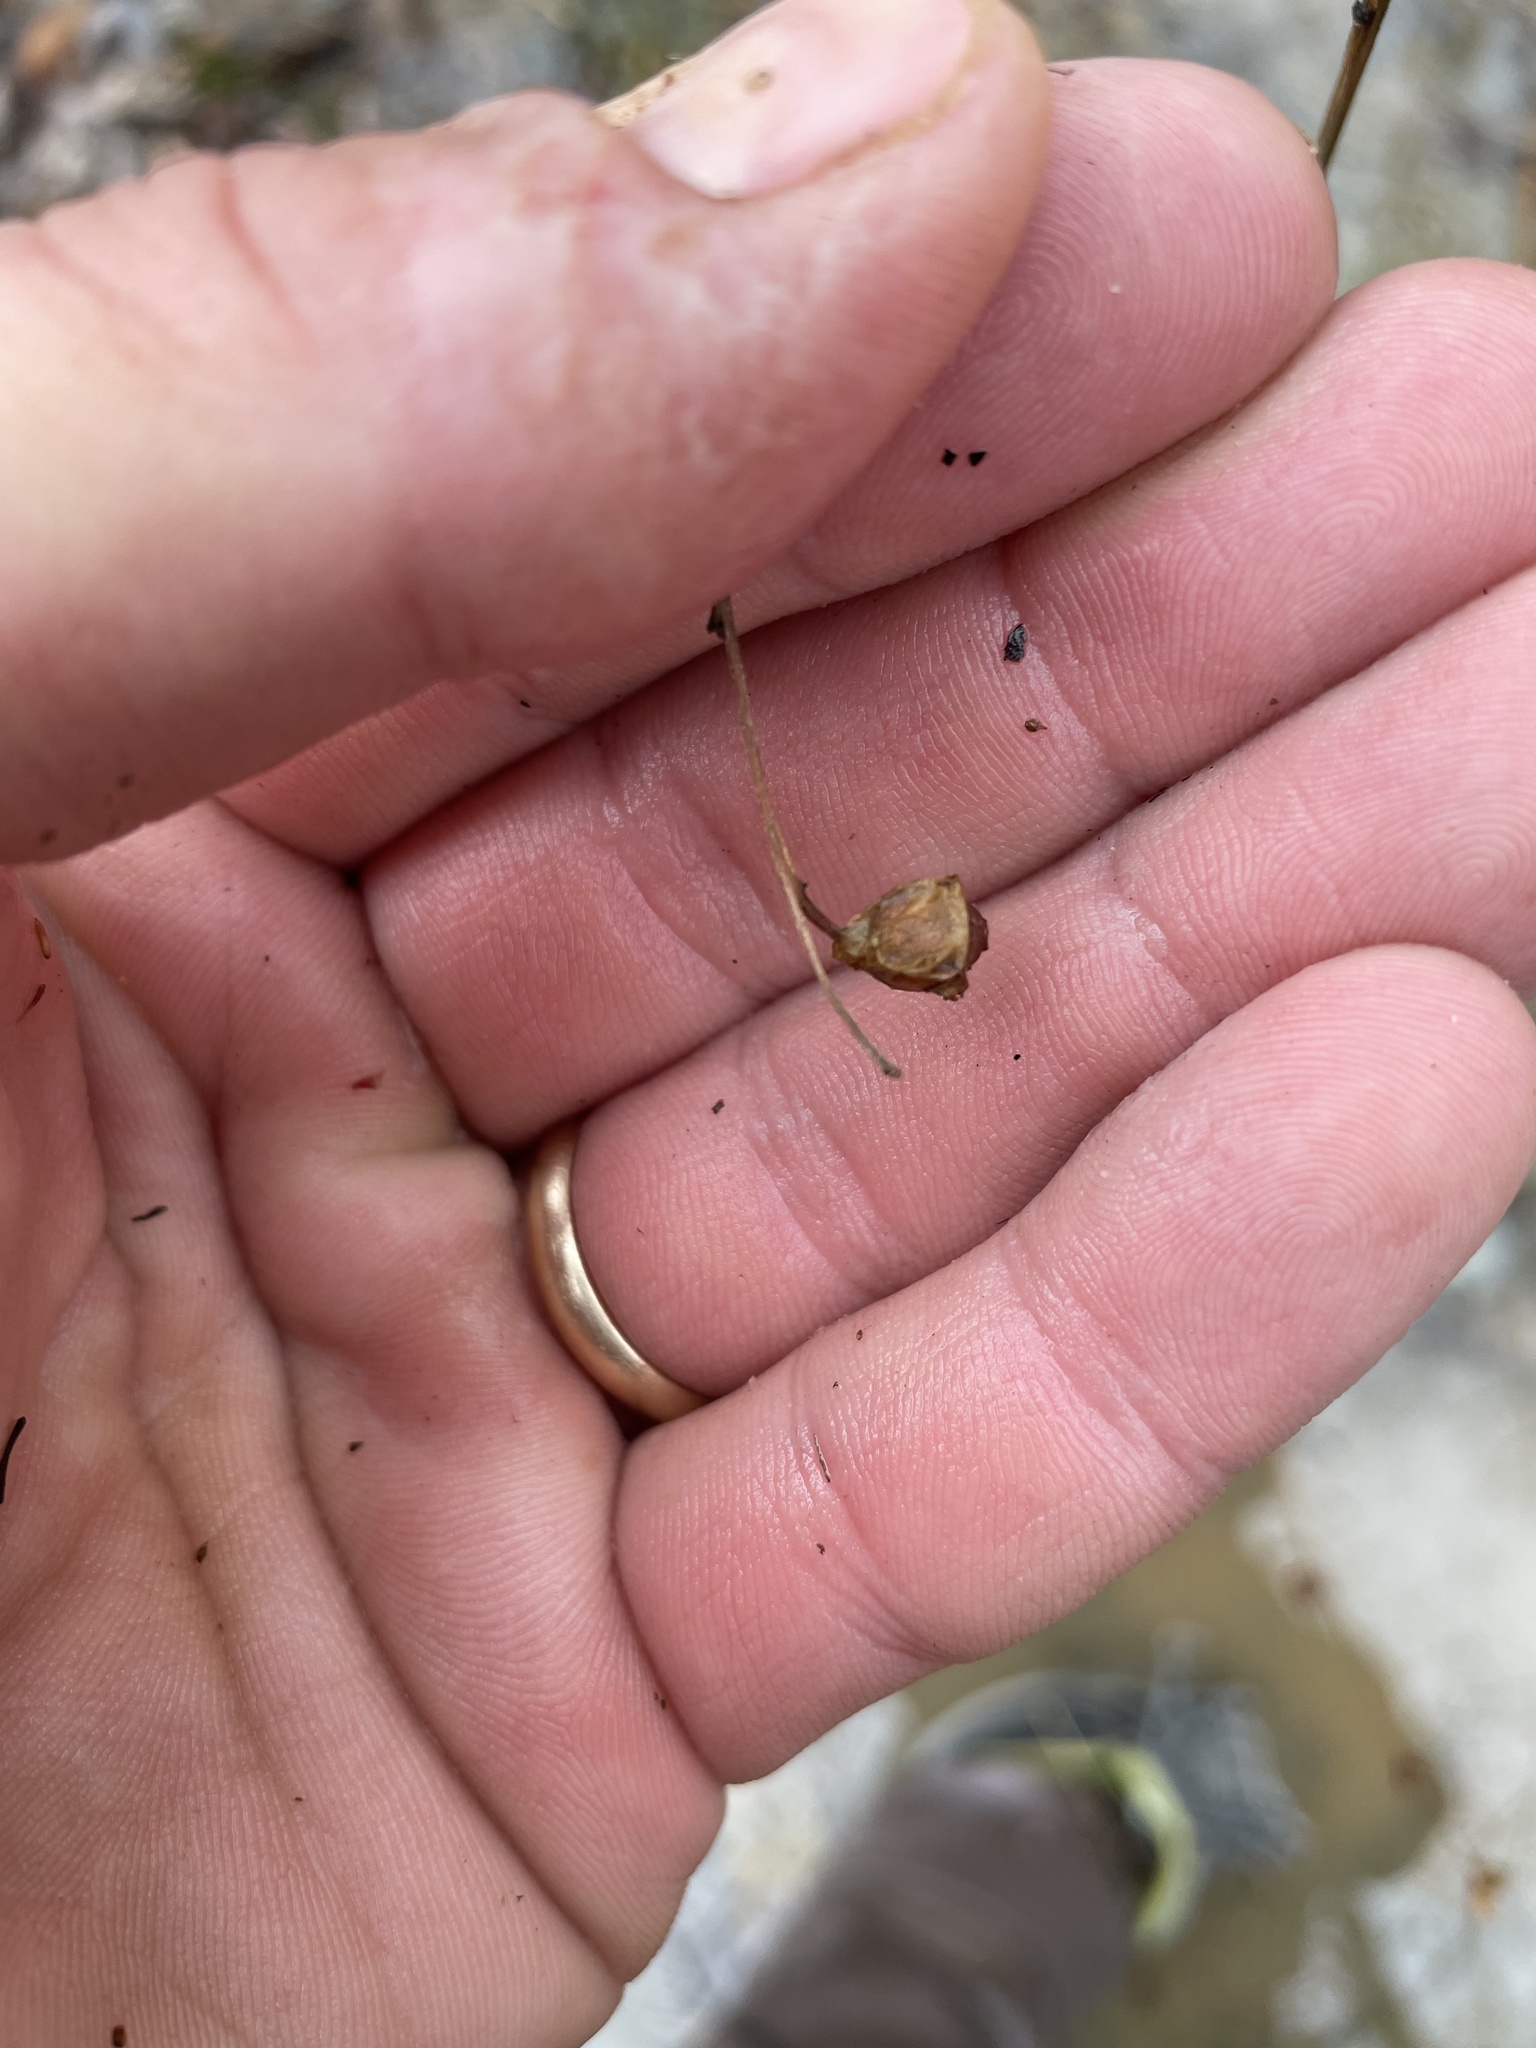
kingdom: Plantae
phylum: Tracheophyta
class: Magnoliopsida
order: Myrtales
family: Onagraceae
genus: Ludwigia
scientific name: Ludwigia alternifolia
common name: Rattlebox
